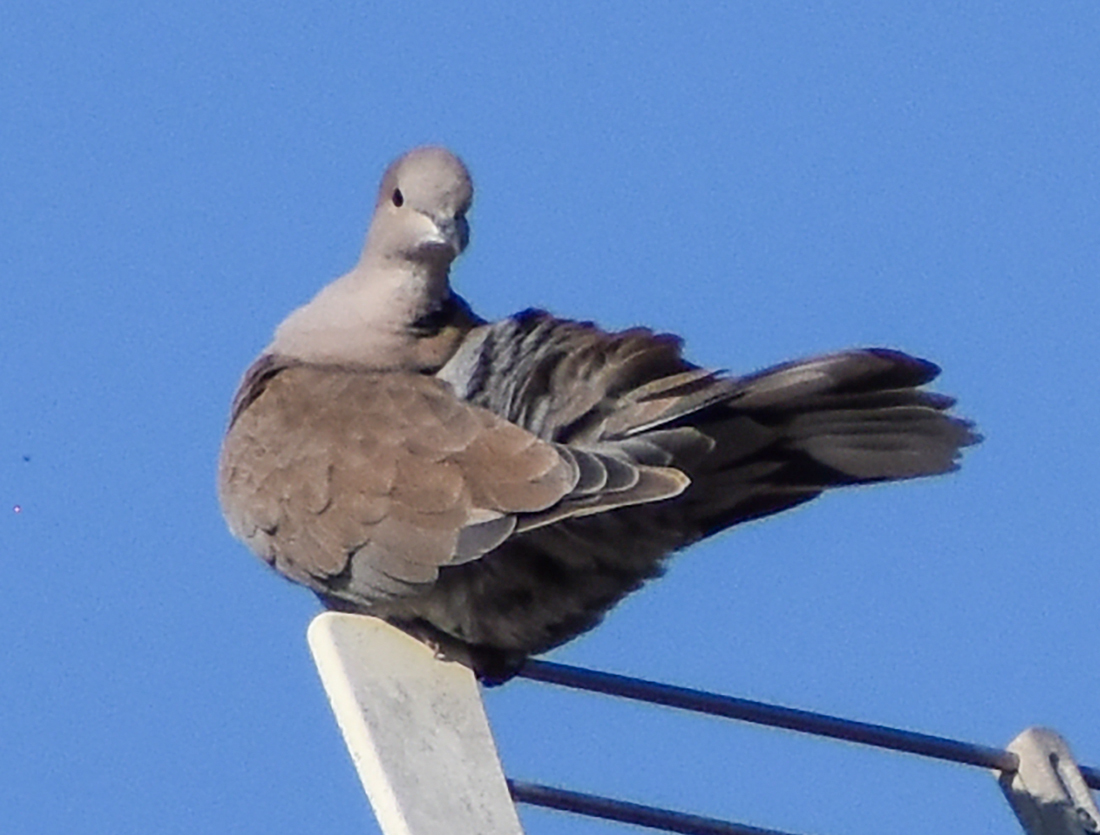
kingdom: Animalia
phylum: Chordata
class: Aves
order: Columbiformes
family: Columbidae
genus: Streptopelia
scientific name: Streptopelia decaocto
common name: Eurasian collared dove
